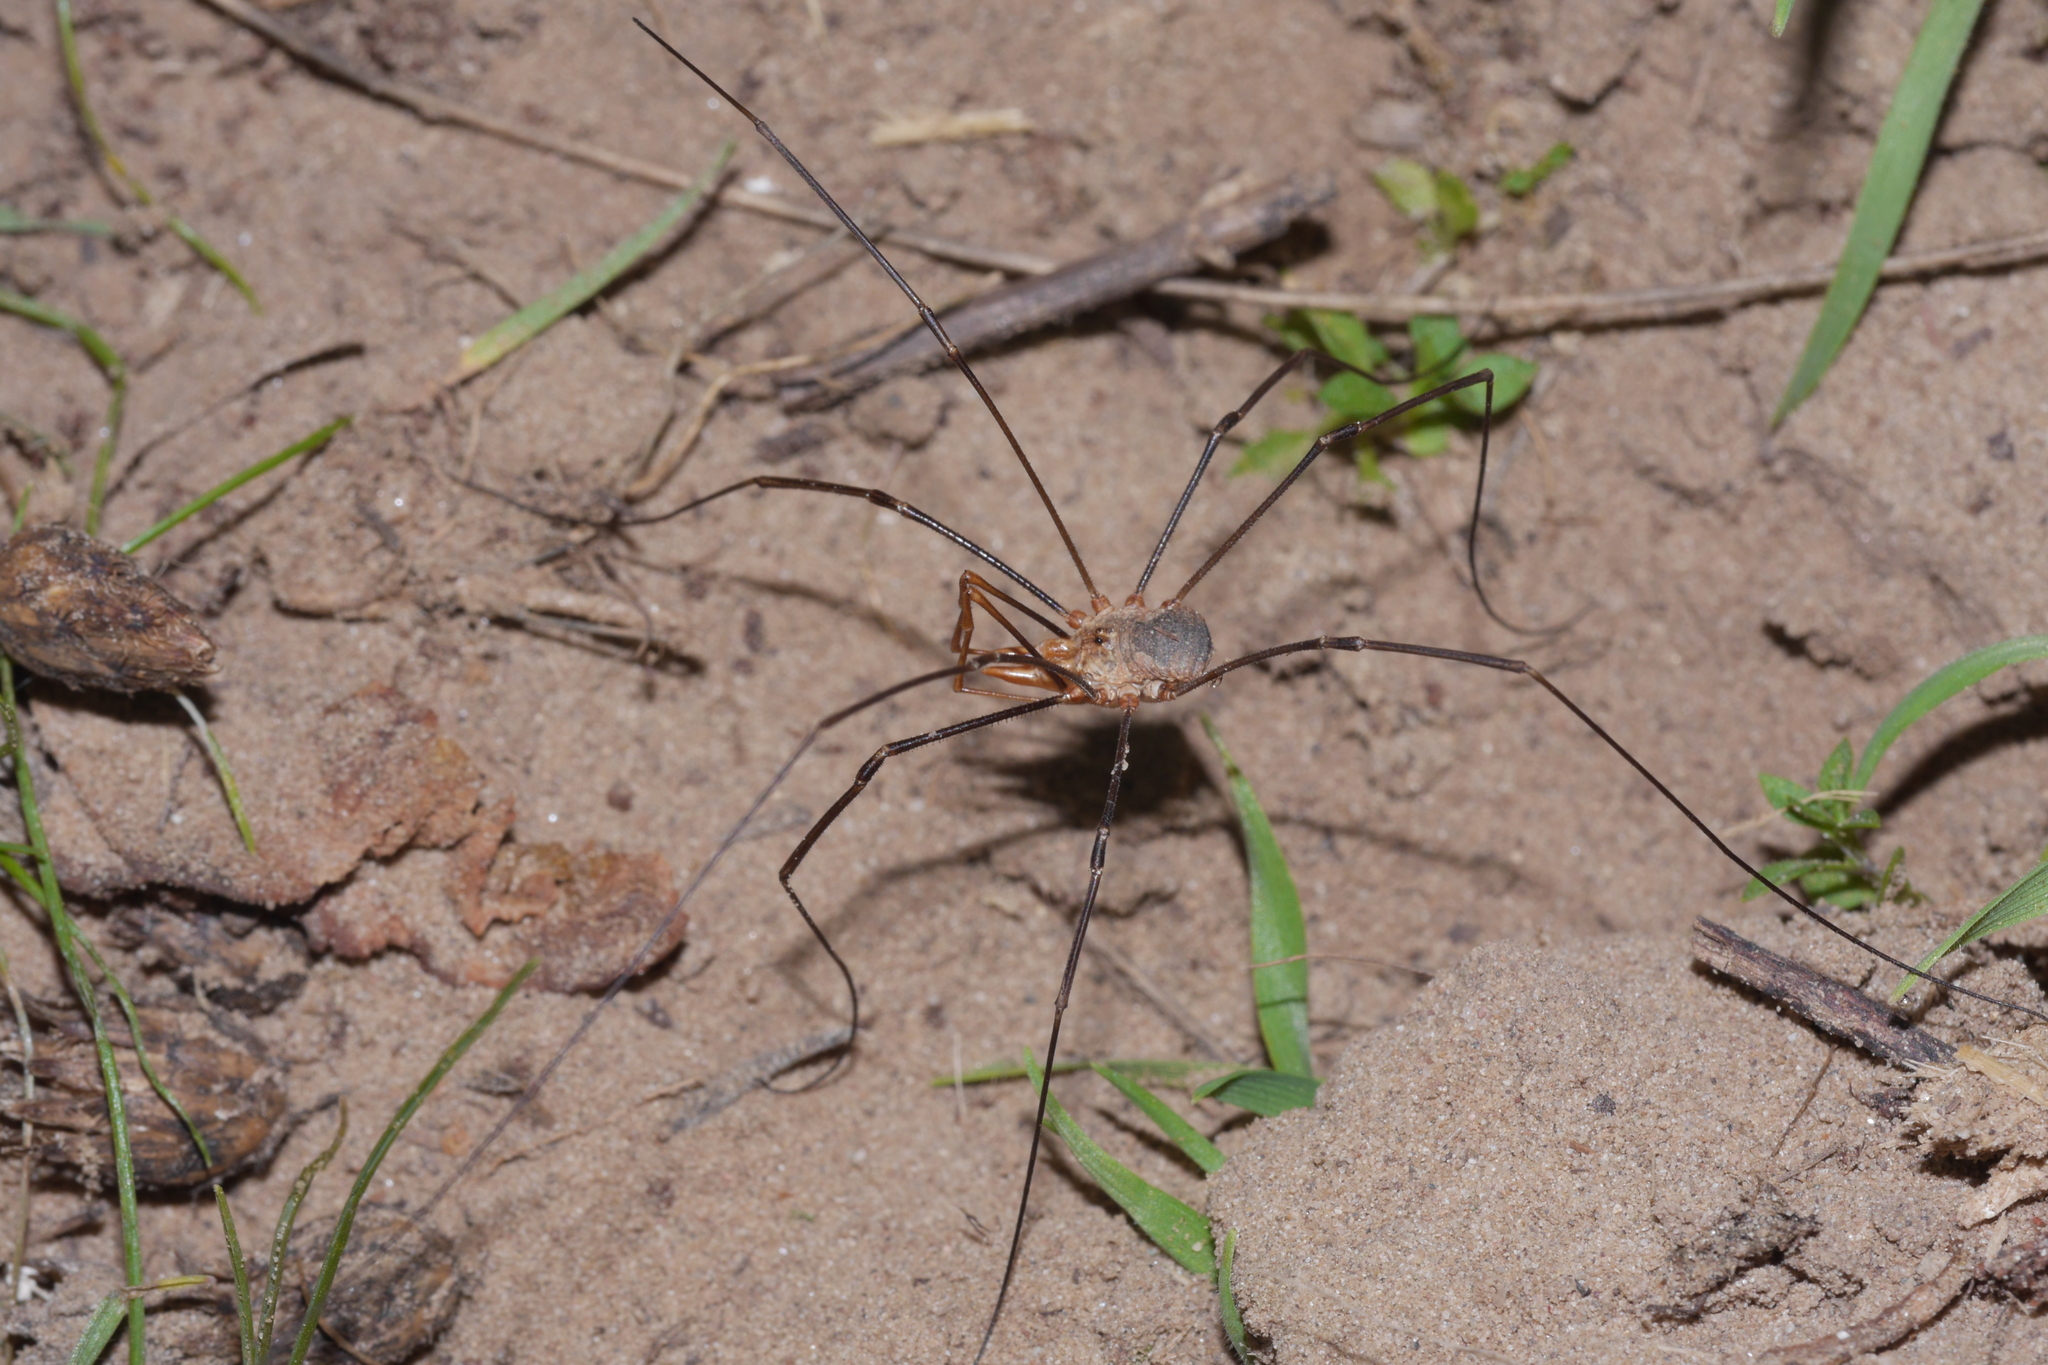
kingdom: Animalia
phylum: Arthropoda
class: Arachnida
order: Opiliones
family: Phalangiidae
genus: Phalangium
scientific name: Phalangium opilio
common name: Daddy longleg
